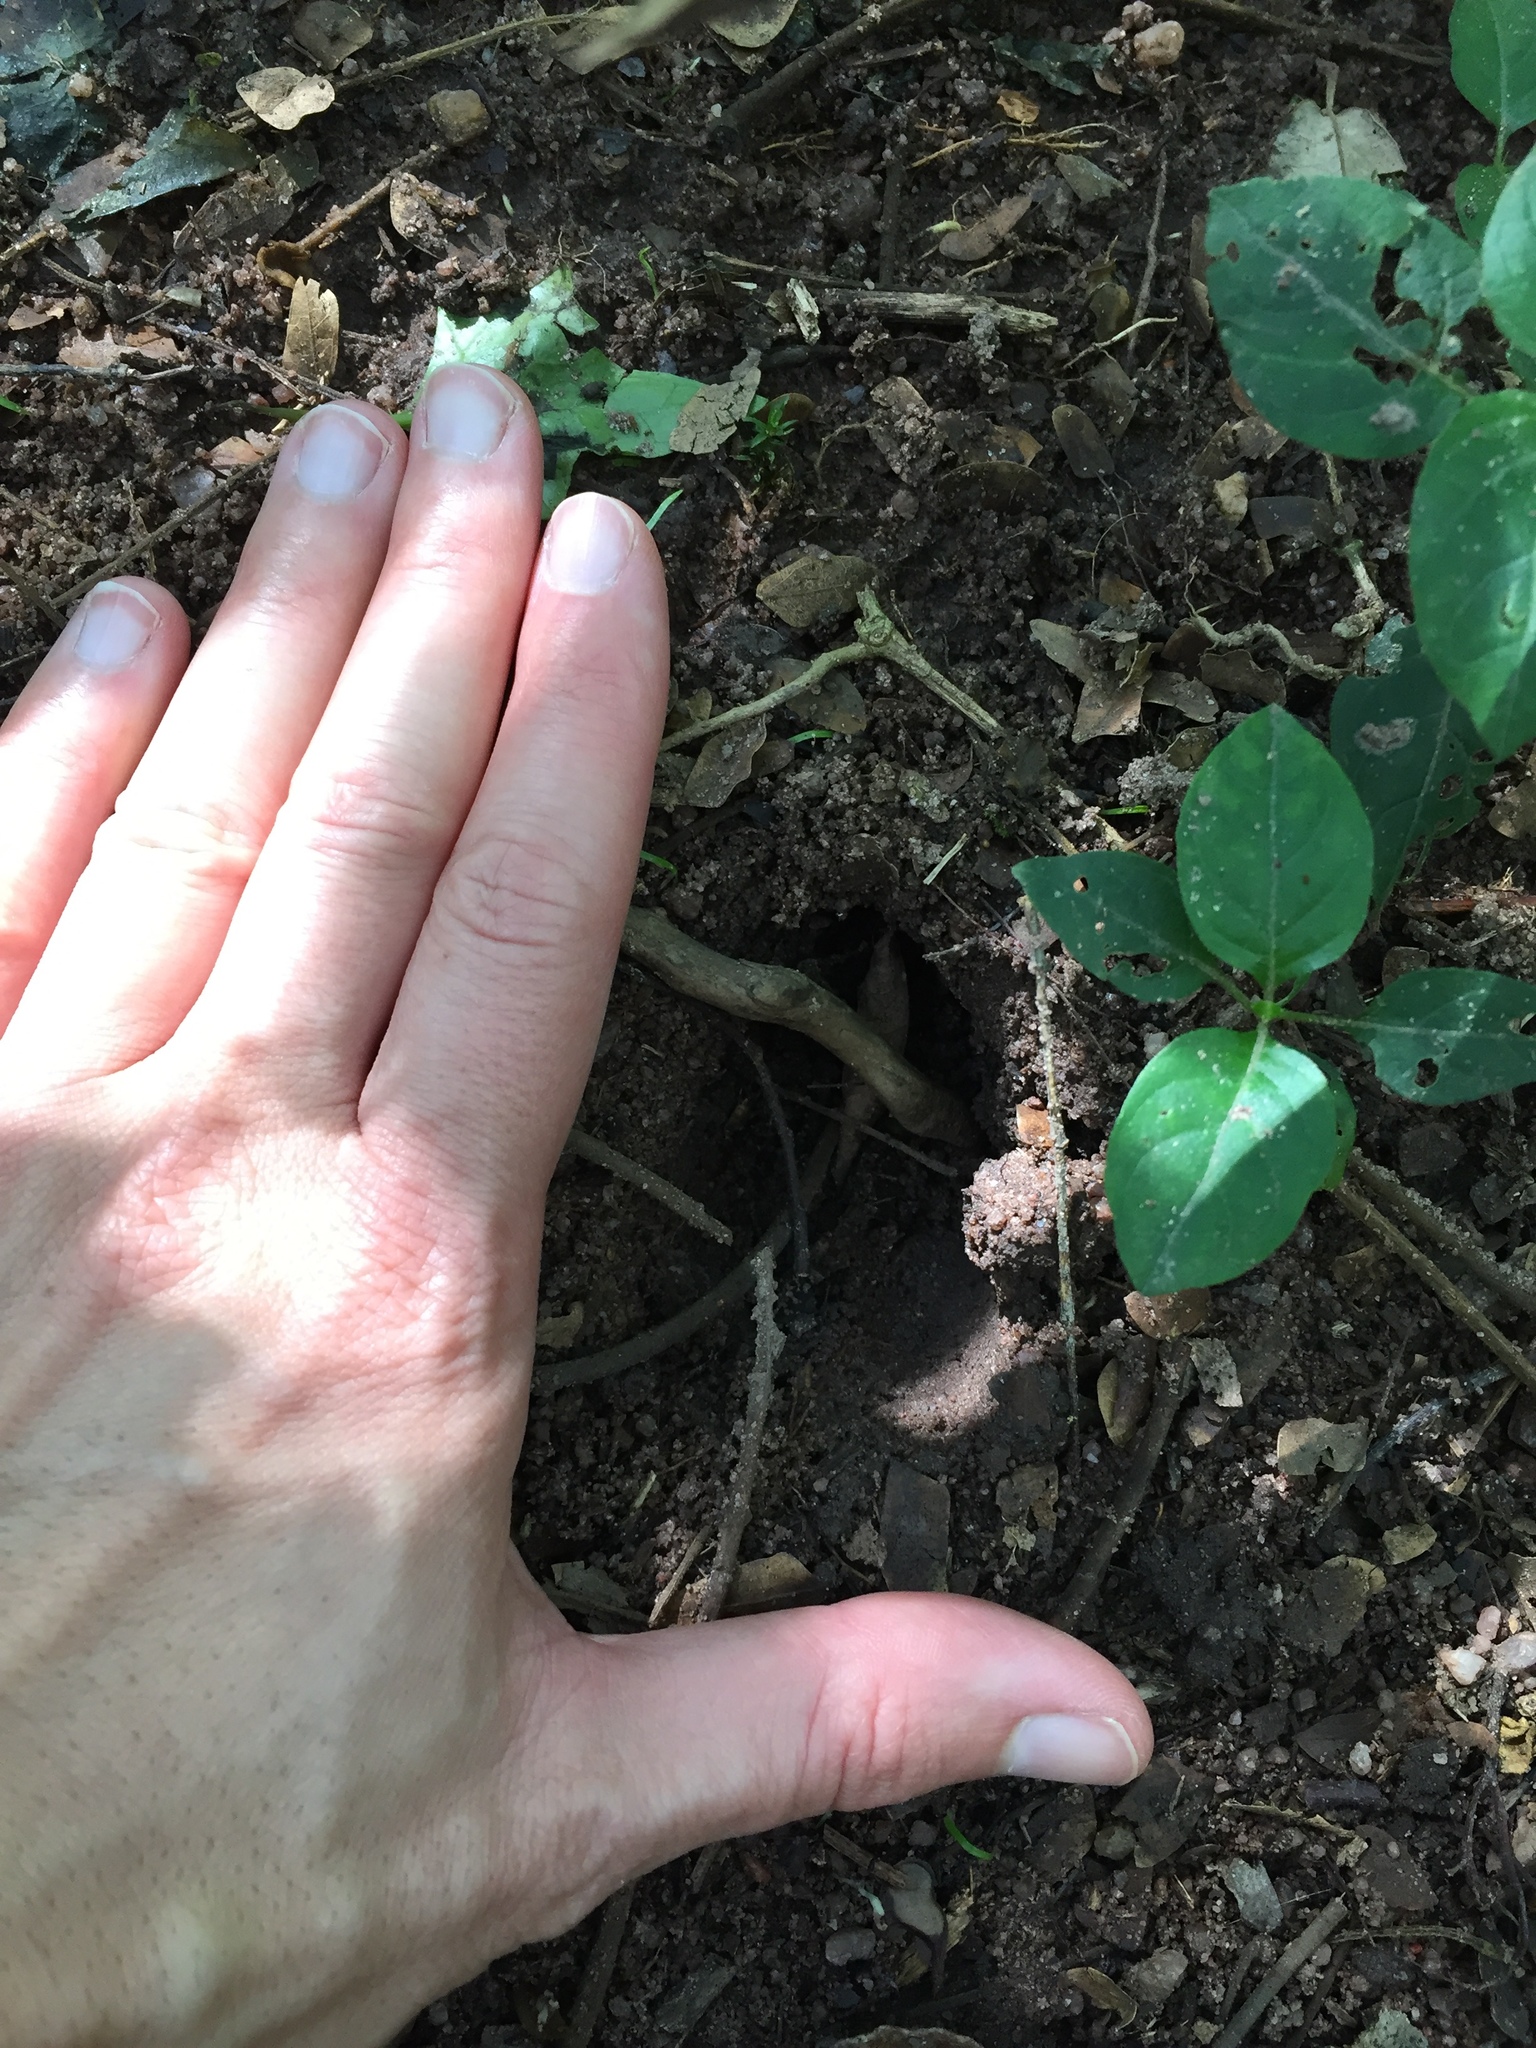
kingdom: Animalia
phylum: Chordata
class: Mammalia
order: Artiodactyla
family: Bovidae
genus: Tragelaphus
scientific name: Tragelaphus scriptus
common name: Bushbuck
